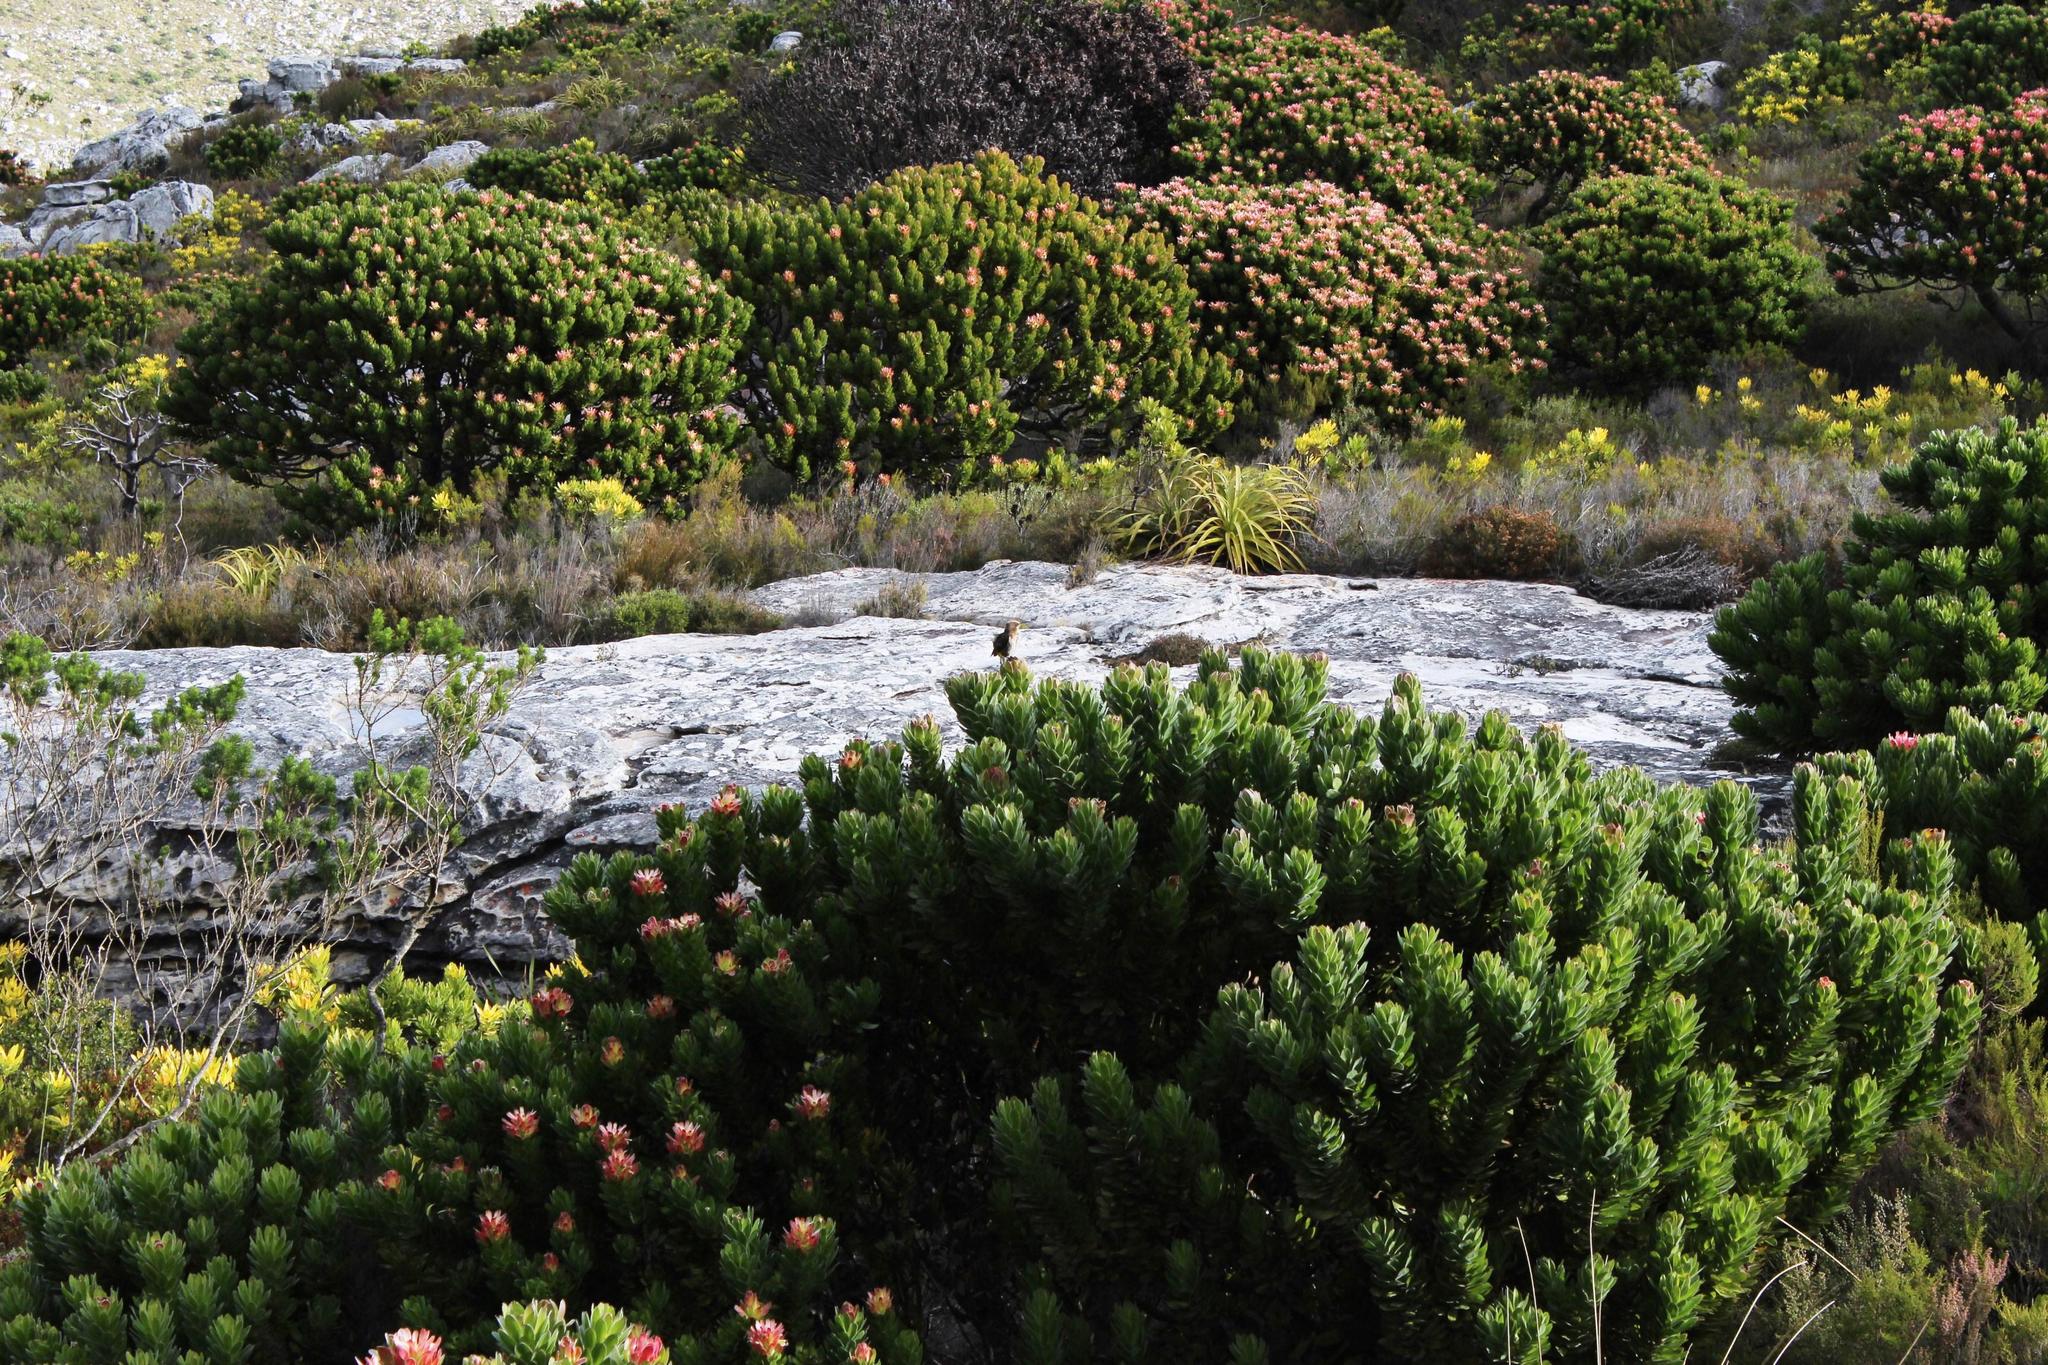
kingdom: Plantae
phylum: Tracheophyta
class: Magnoliopsida
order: Proteales
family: Proteaceae
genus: Mimetes
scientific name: Mimetes fimbriifolius
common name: Fringed bottlebrush
